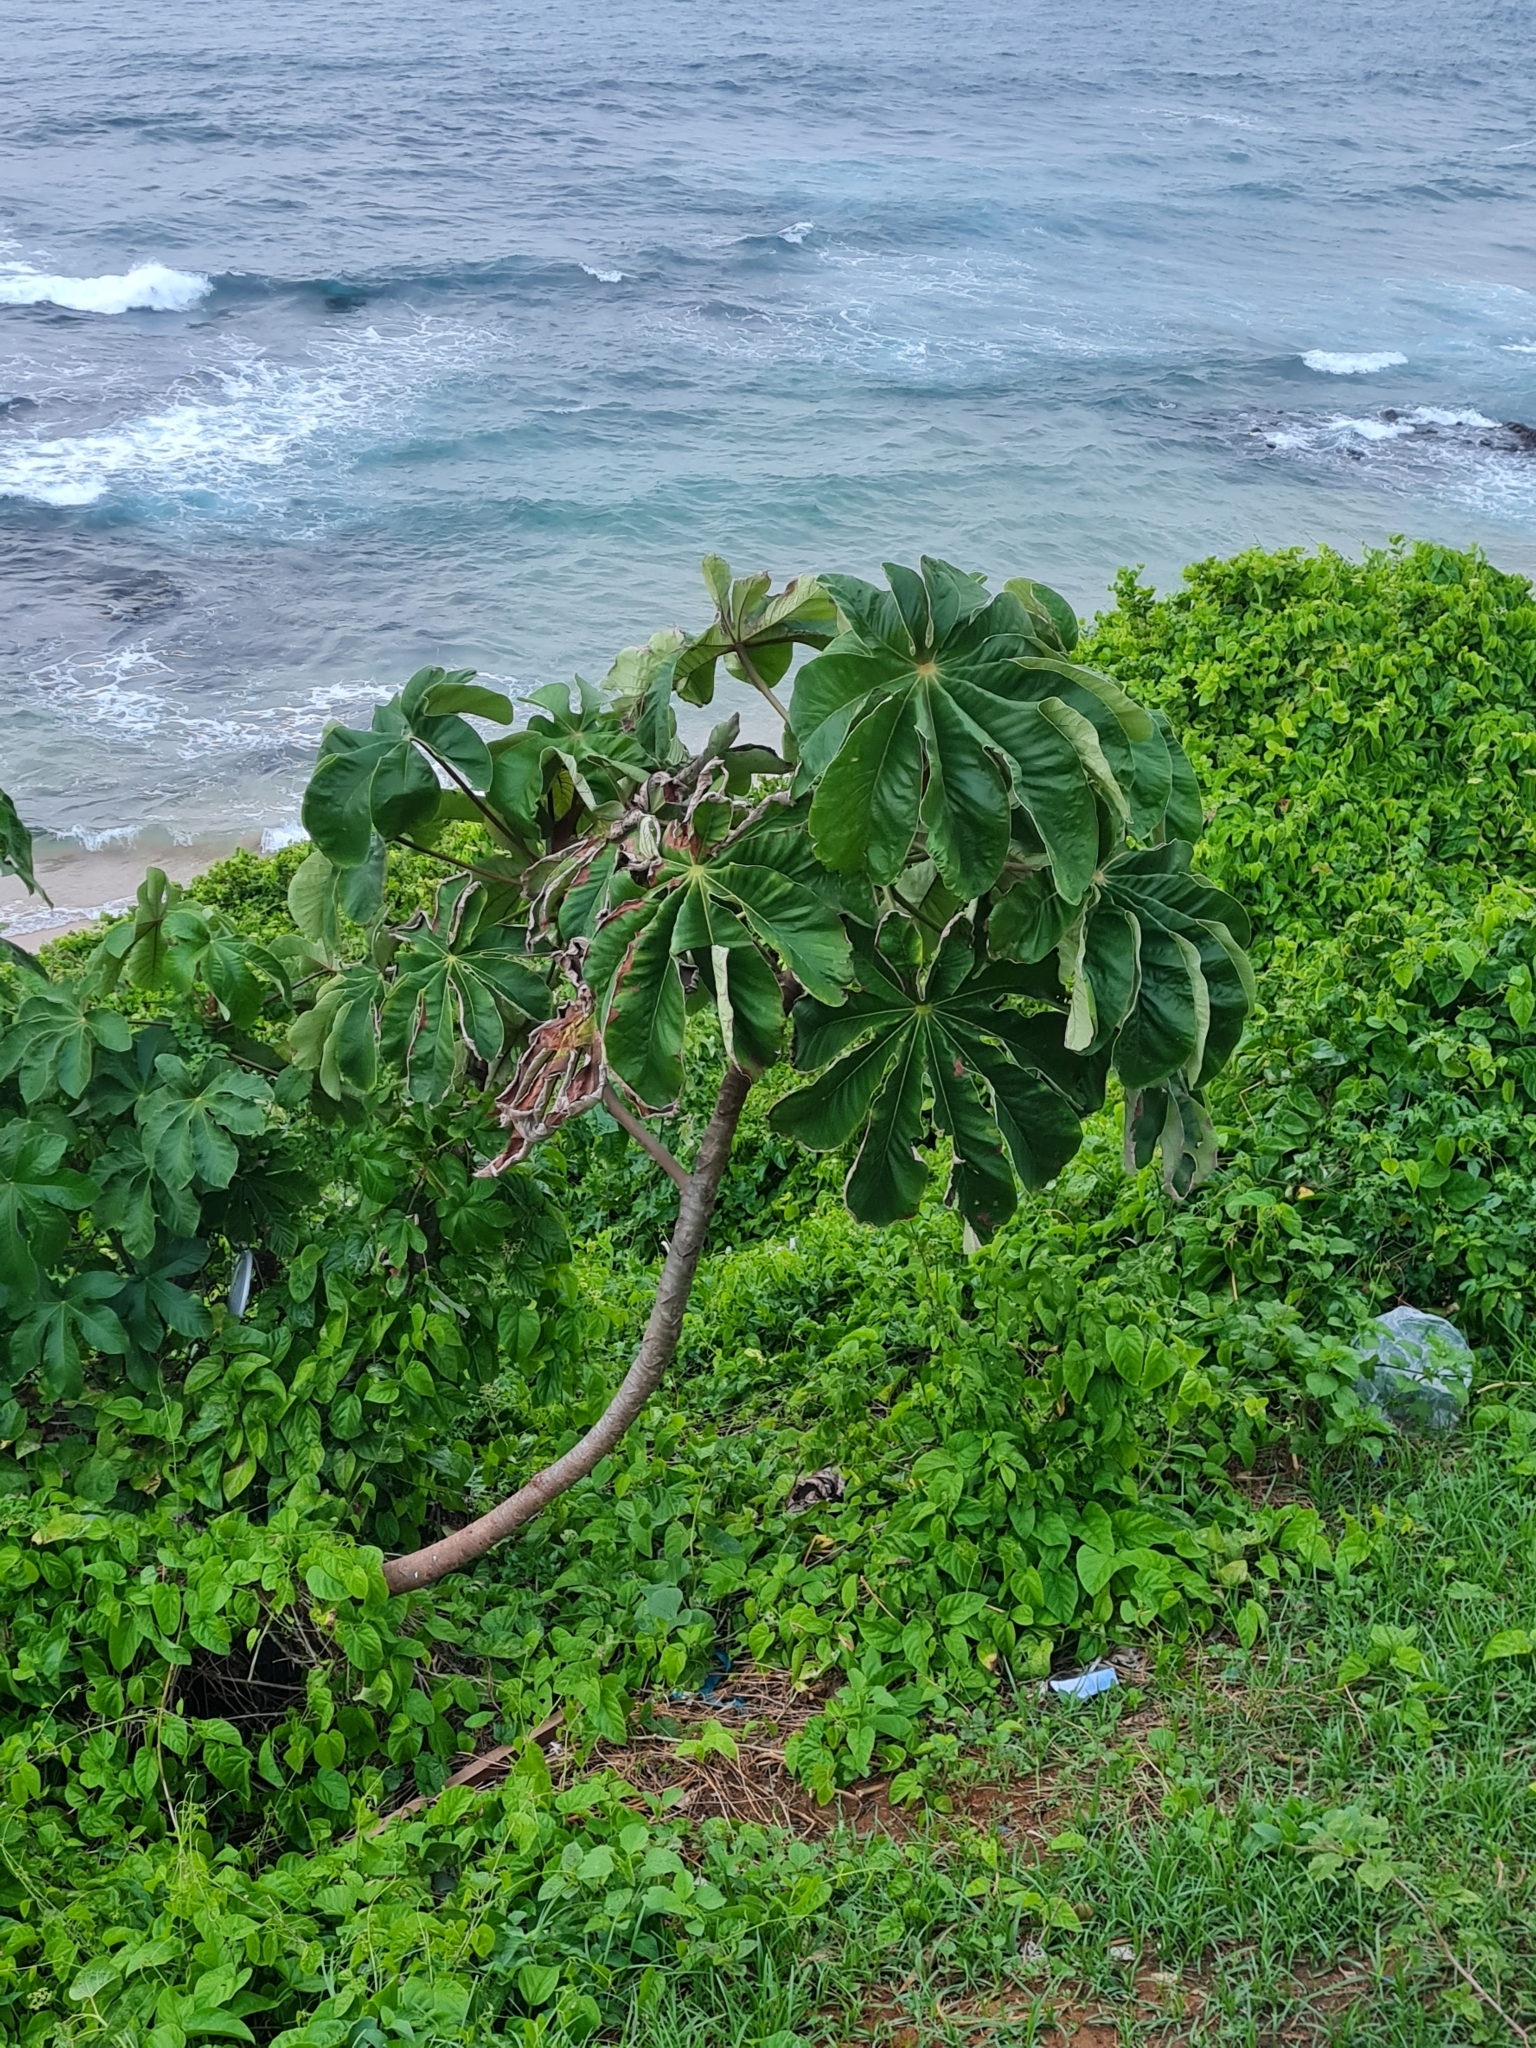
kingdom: Plantae
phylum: Tracheophyta
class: Magnoliopsida
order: Rosales
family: Urticaceae
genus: Cecropia
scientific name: Cecropia palmata
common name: Trumpet tree
